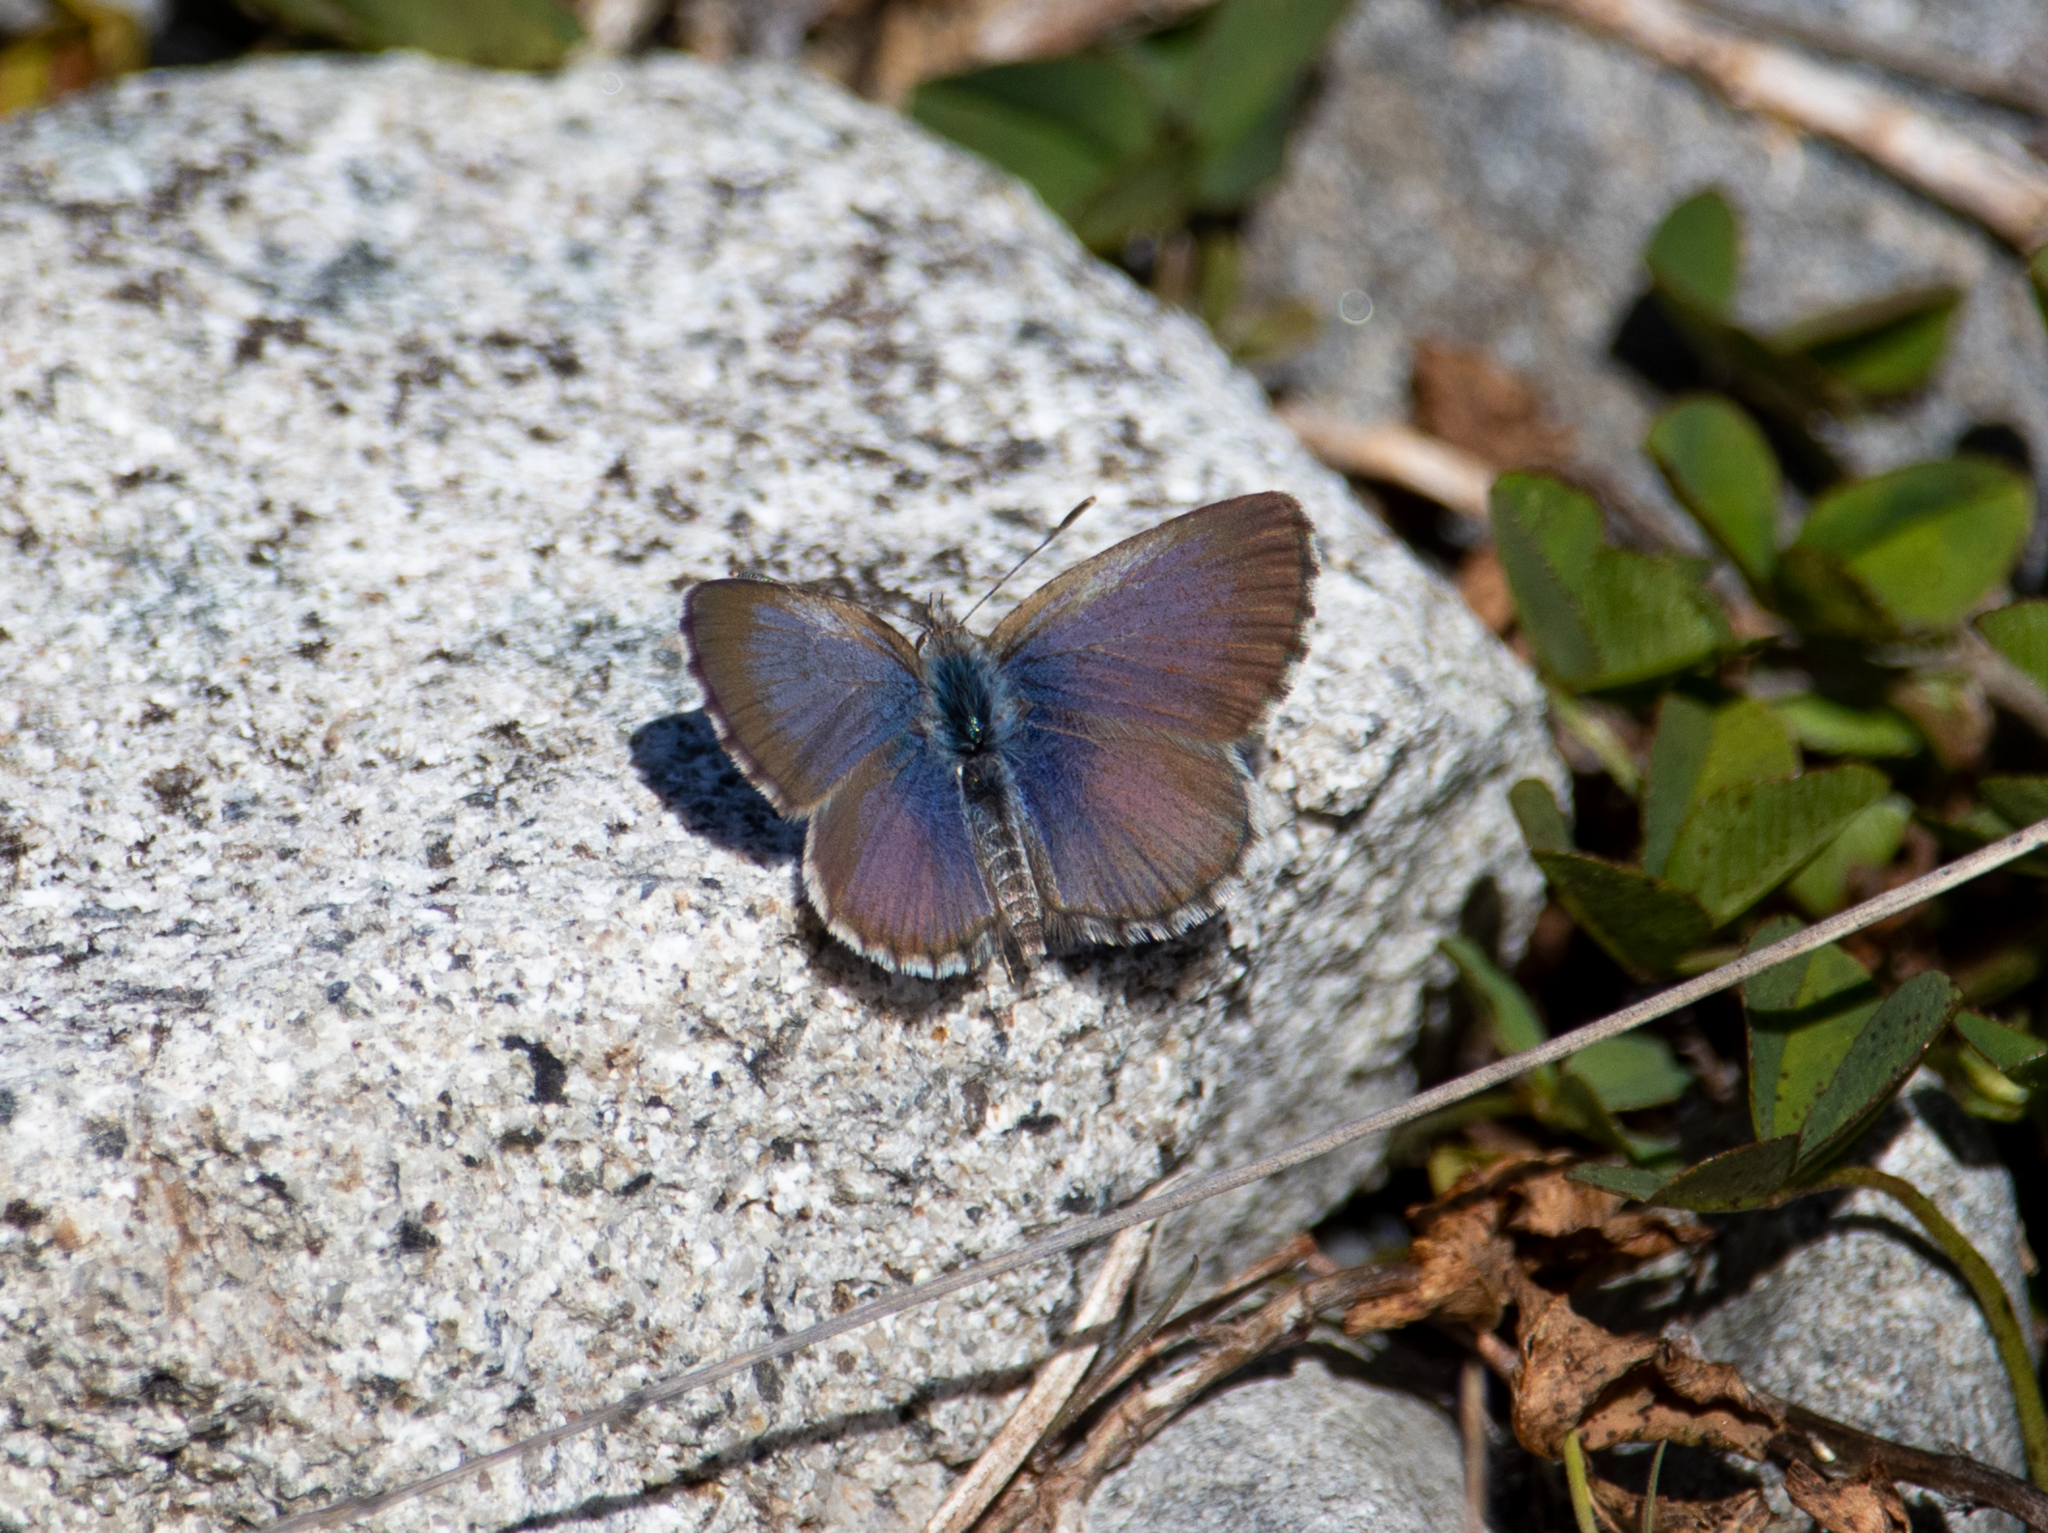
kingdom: Animalia
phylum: Arthropoda
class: Insecta
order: Lepidoptera
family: Lycaenidae
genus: Zizina
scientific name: Zizina oxleyi
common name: Southern blue
